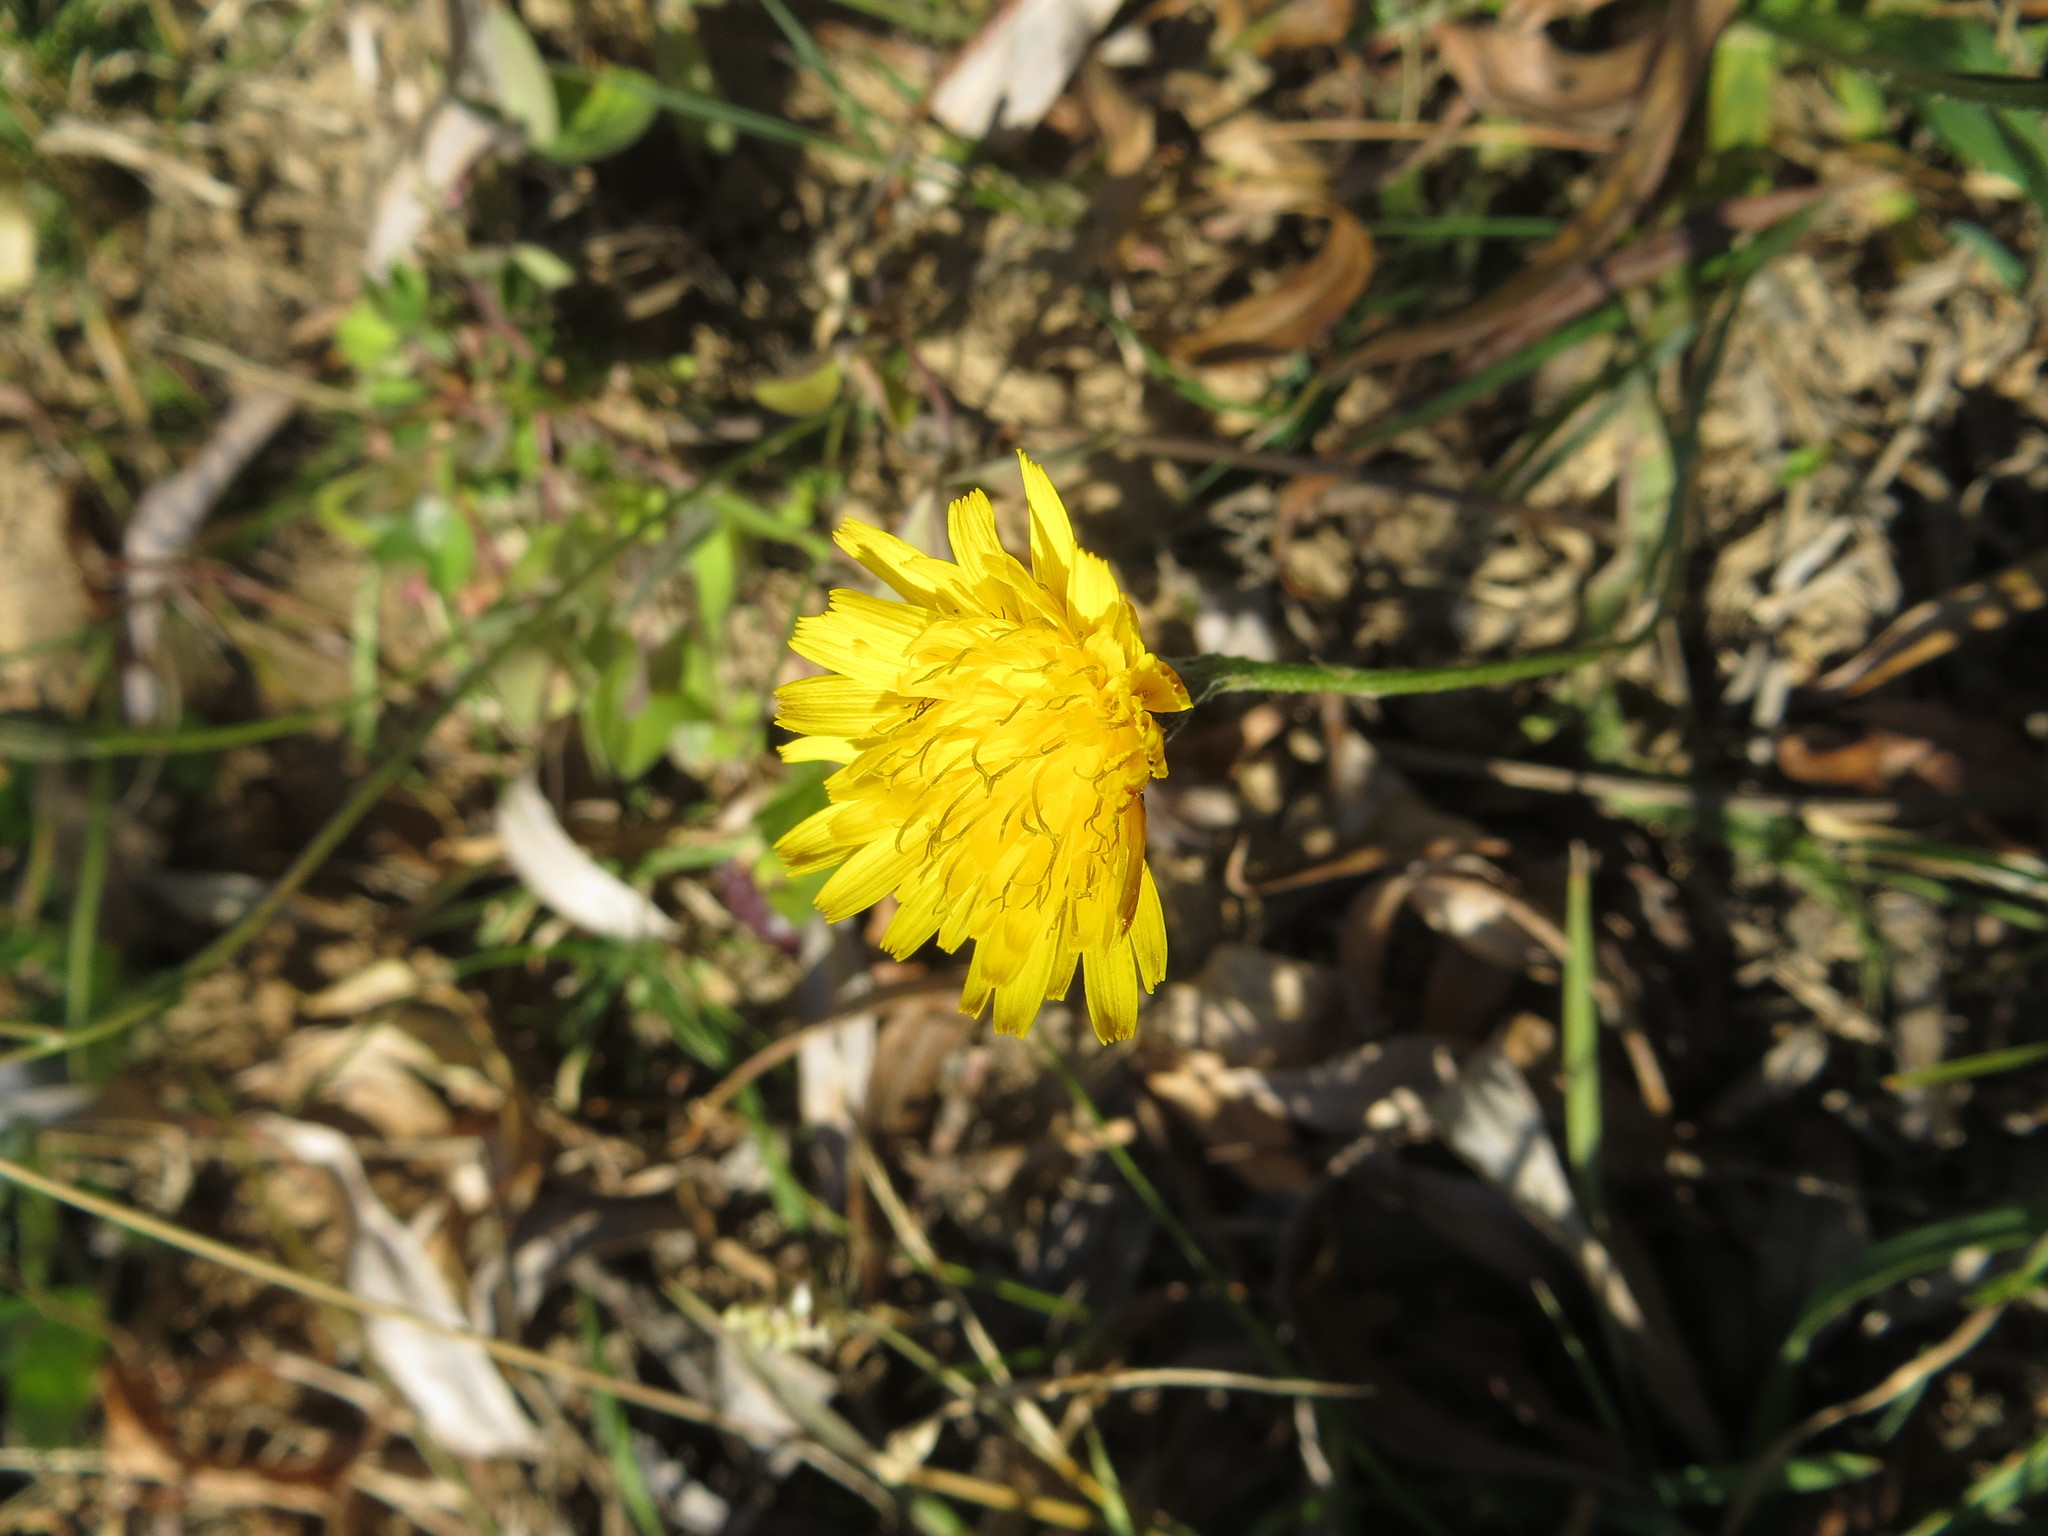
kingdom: Plantae
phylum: Tracheophyta
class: Magnoliopsida
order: Asterales
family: Asteraceae
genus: Scorzoneroides
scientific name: Scorzoneroides autumnalis
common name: Autumn hawkbit
